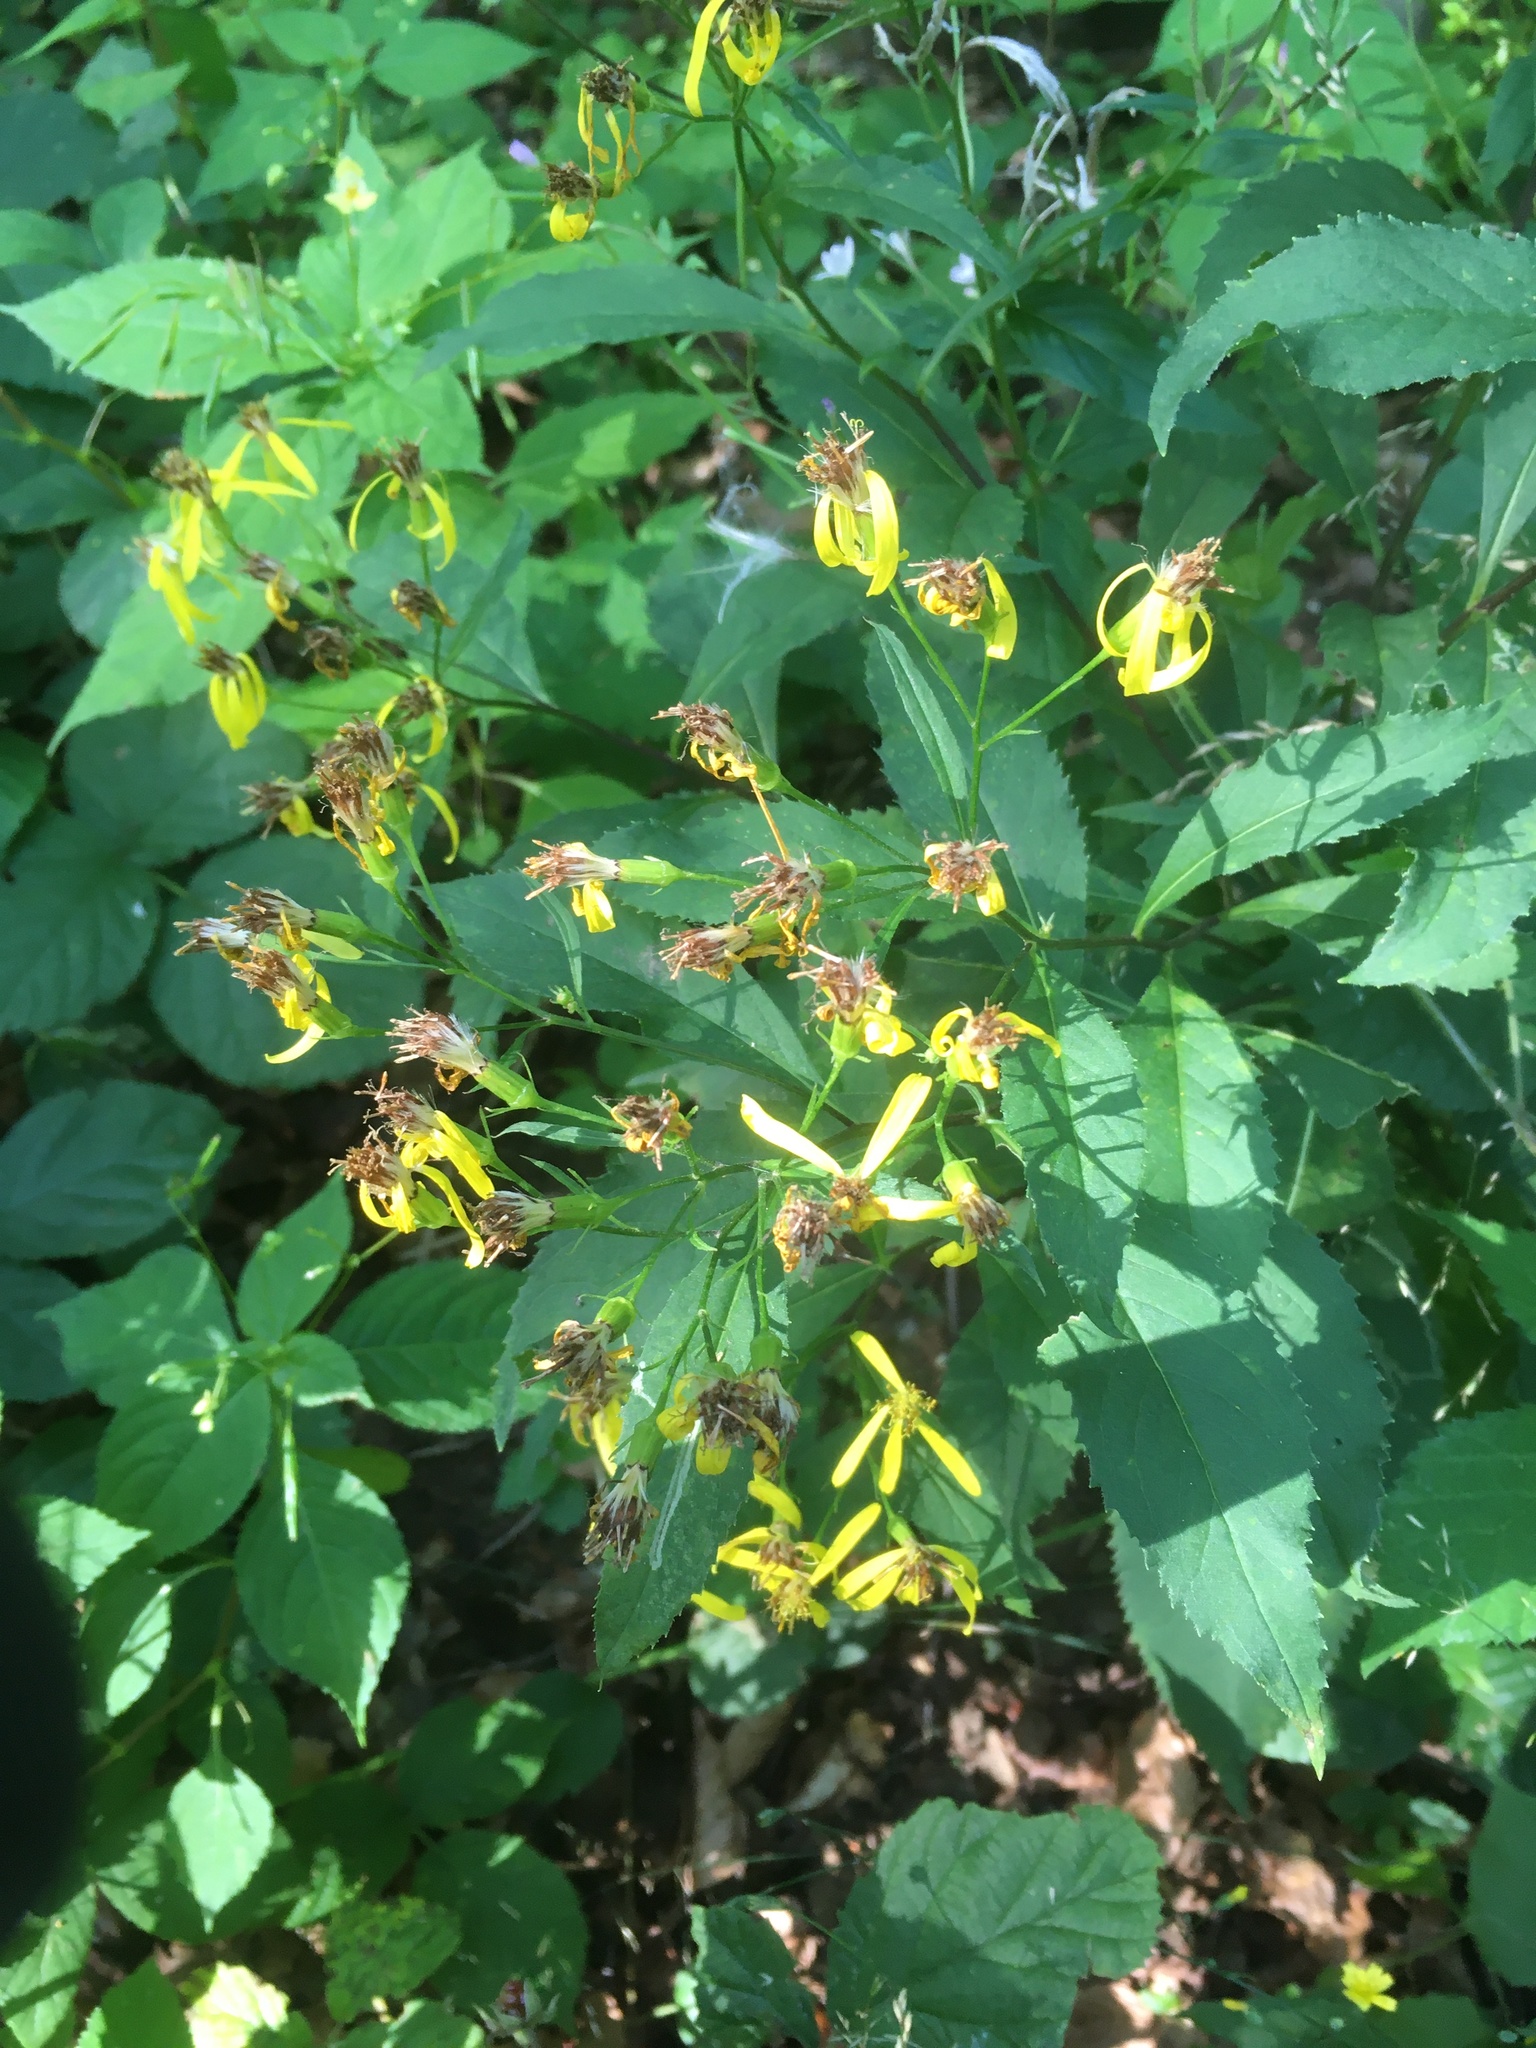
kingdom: Plantae
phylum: Tracheophyta
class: Magnoliopsida
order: Asterales
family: Asteraceae
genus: Senecio
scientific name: Senecio ovatus
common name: Wood ragwort
